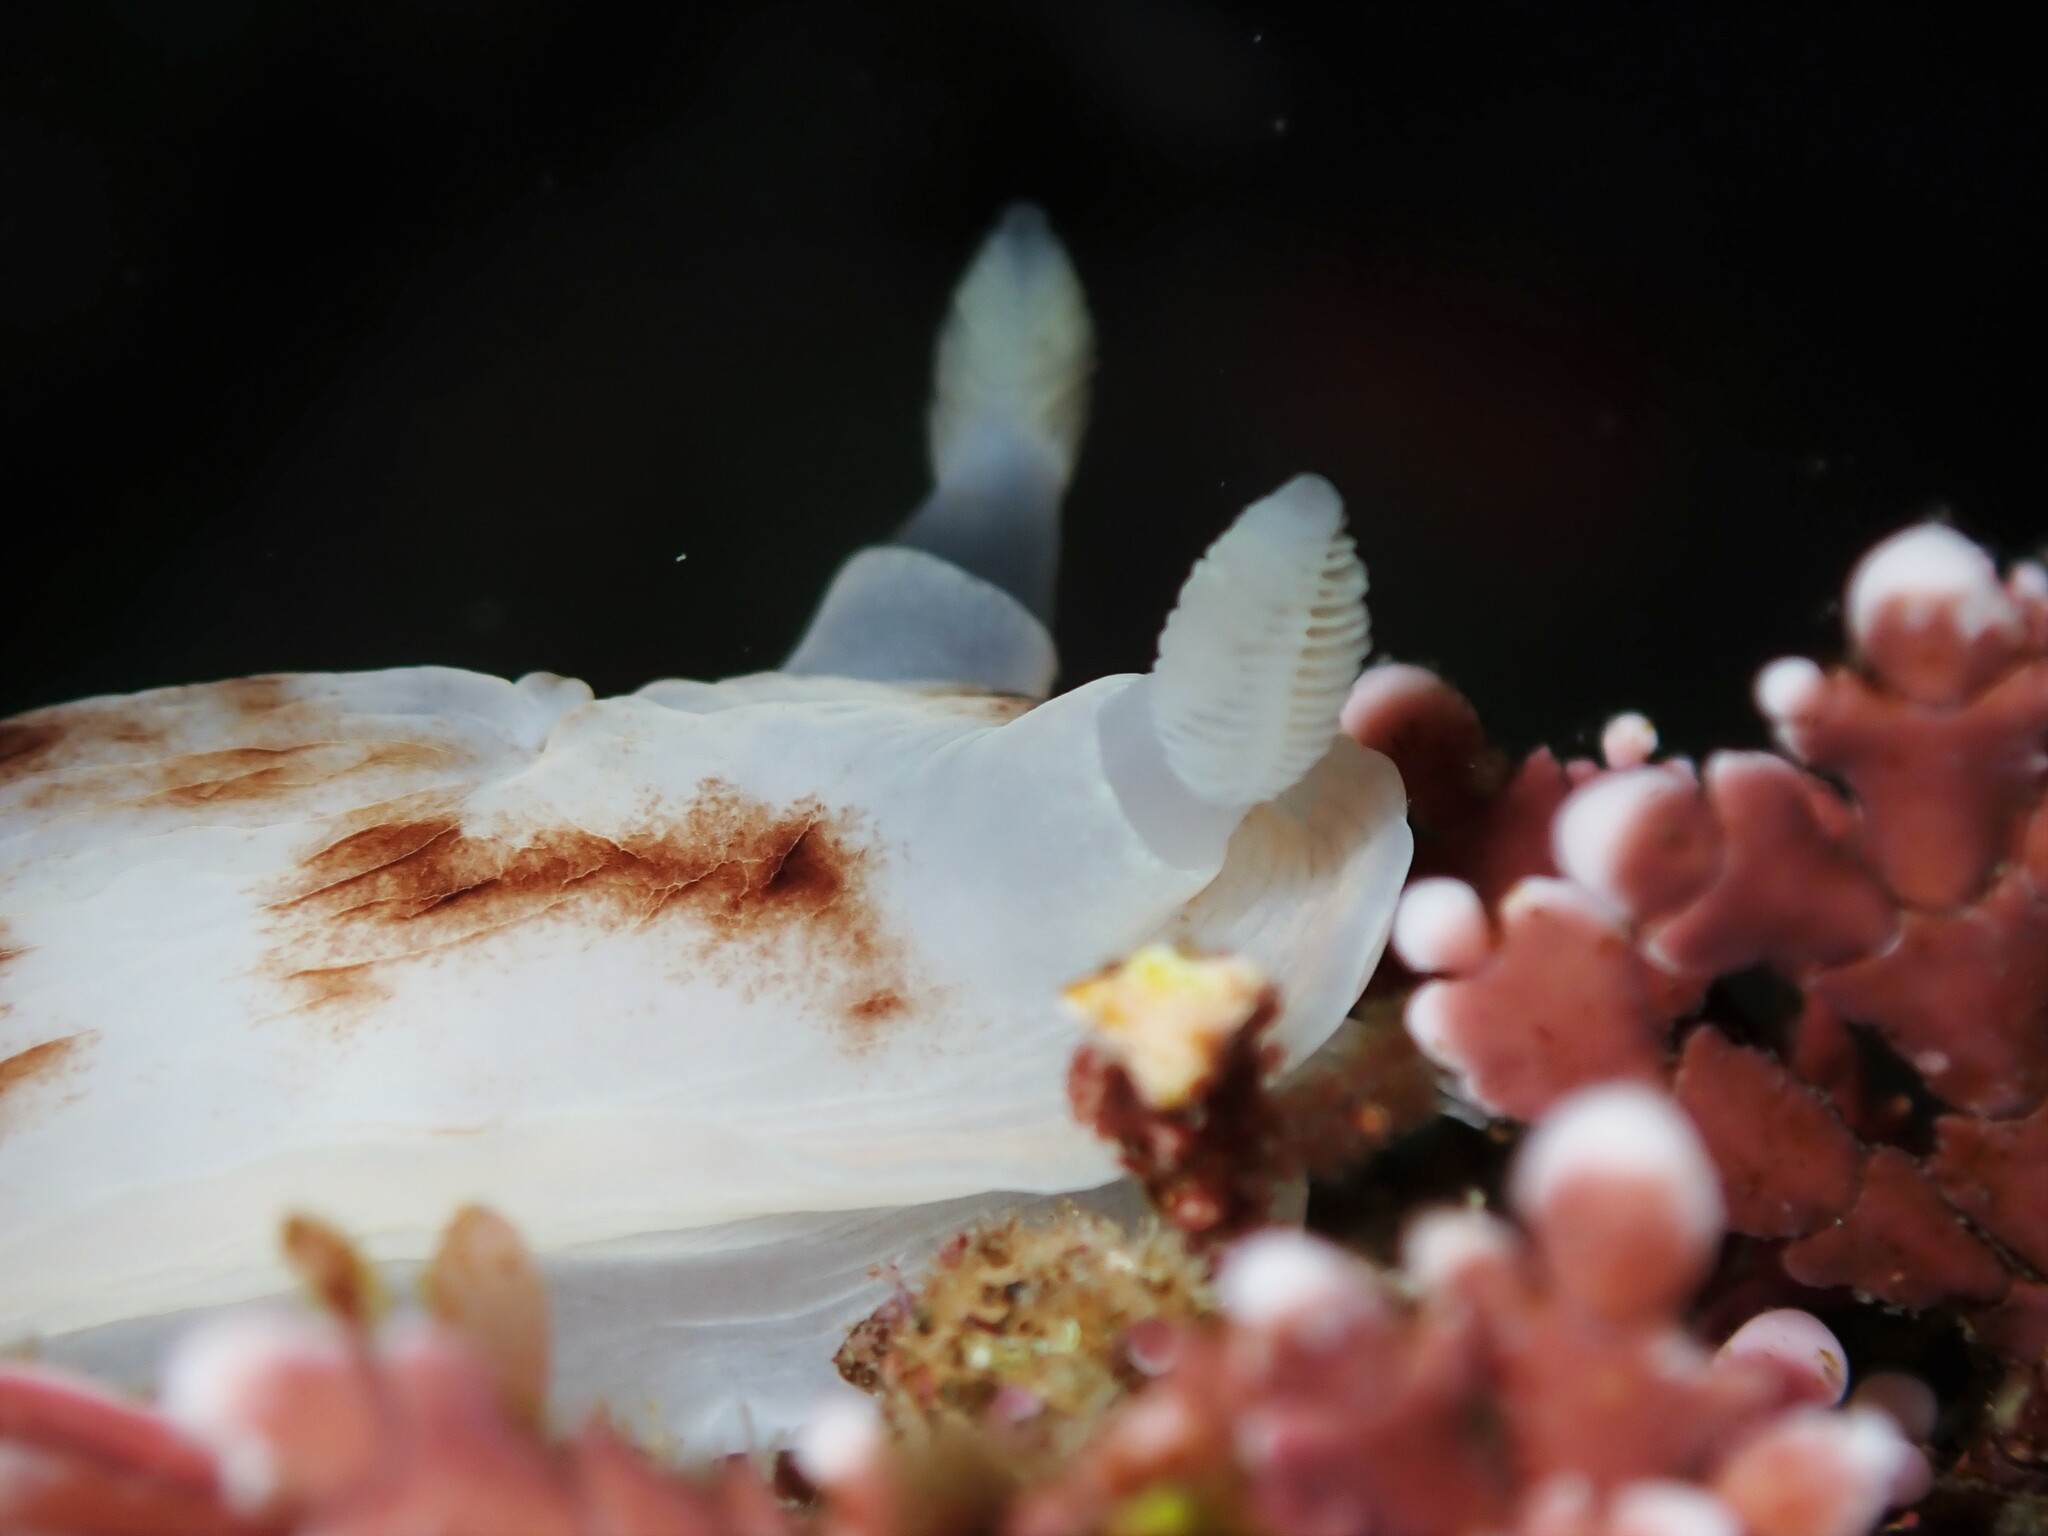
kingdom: Animalia
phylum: Mollusca
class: Gastropoda
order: Nudibranchia
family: Dorididae
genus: Aphelodoris
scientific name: Aphelodoris luctuosa
